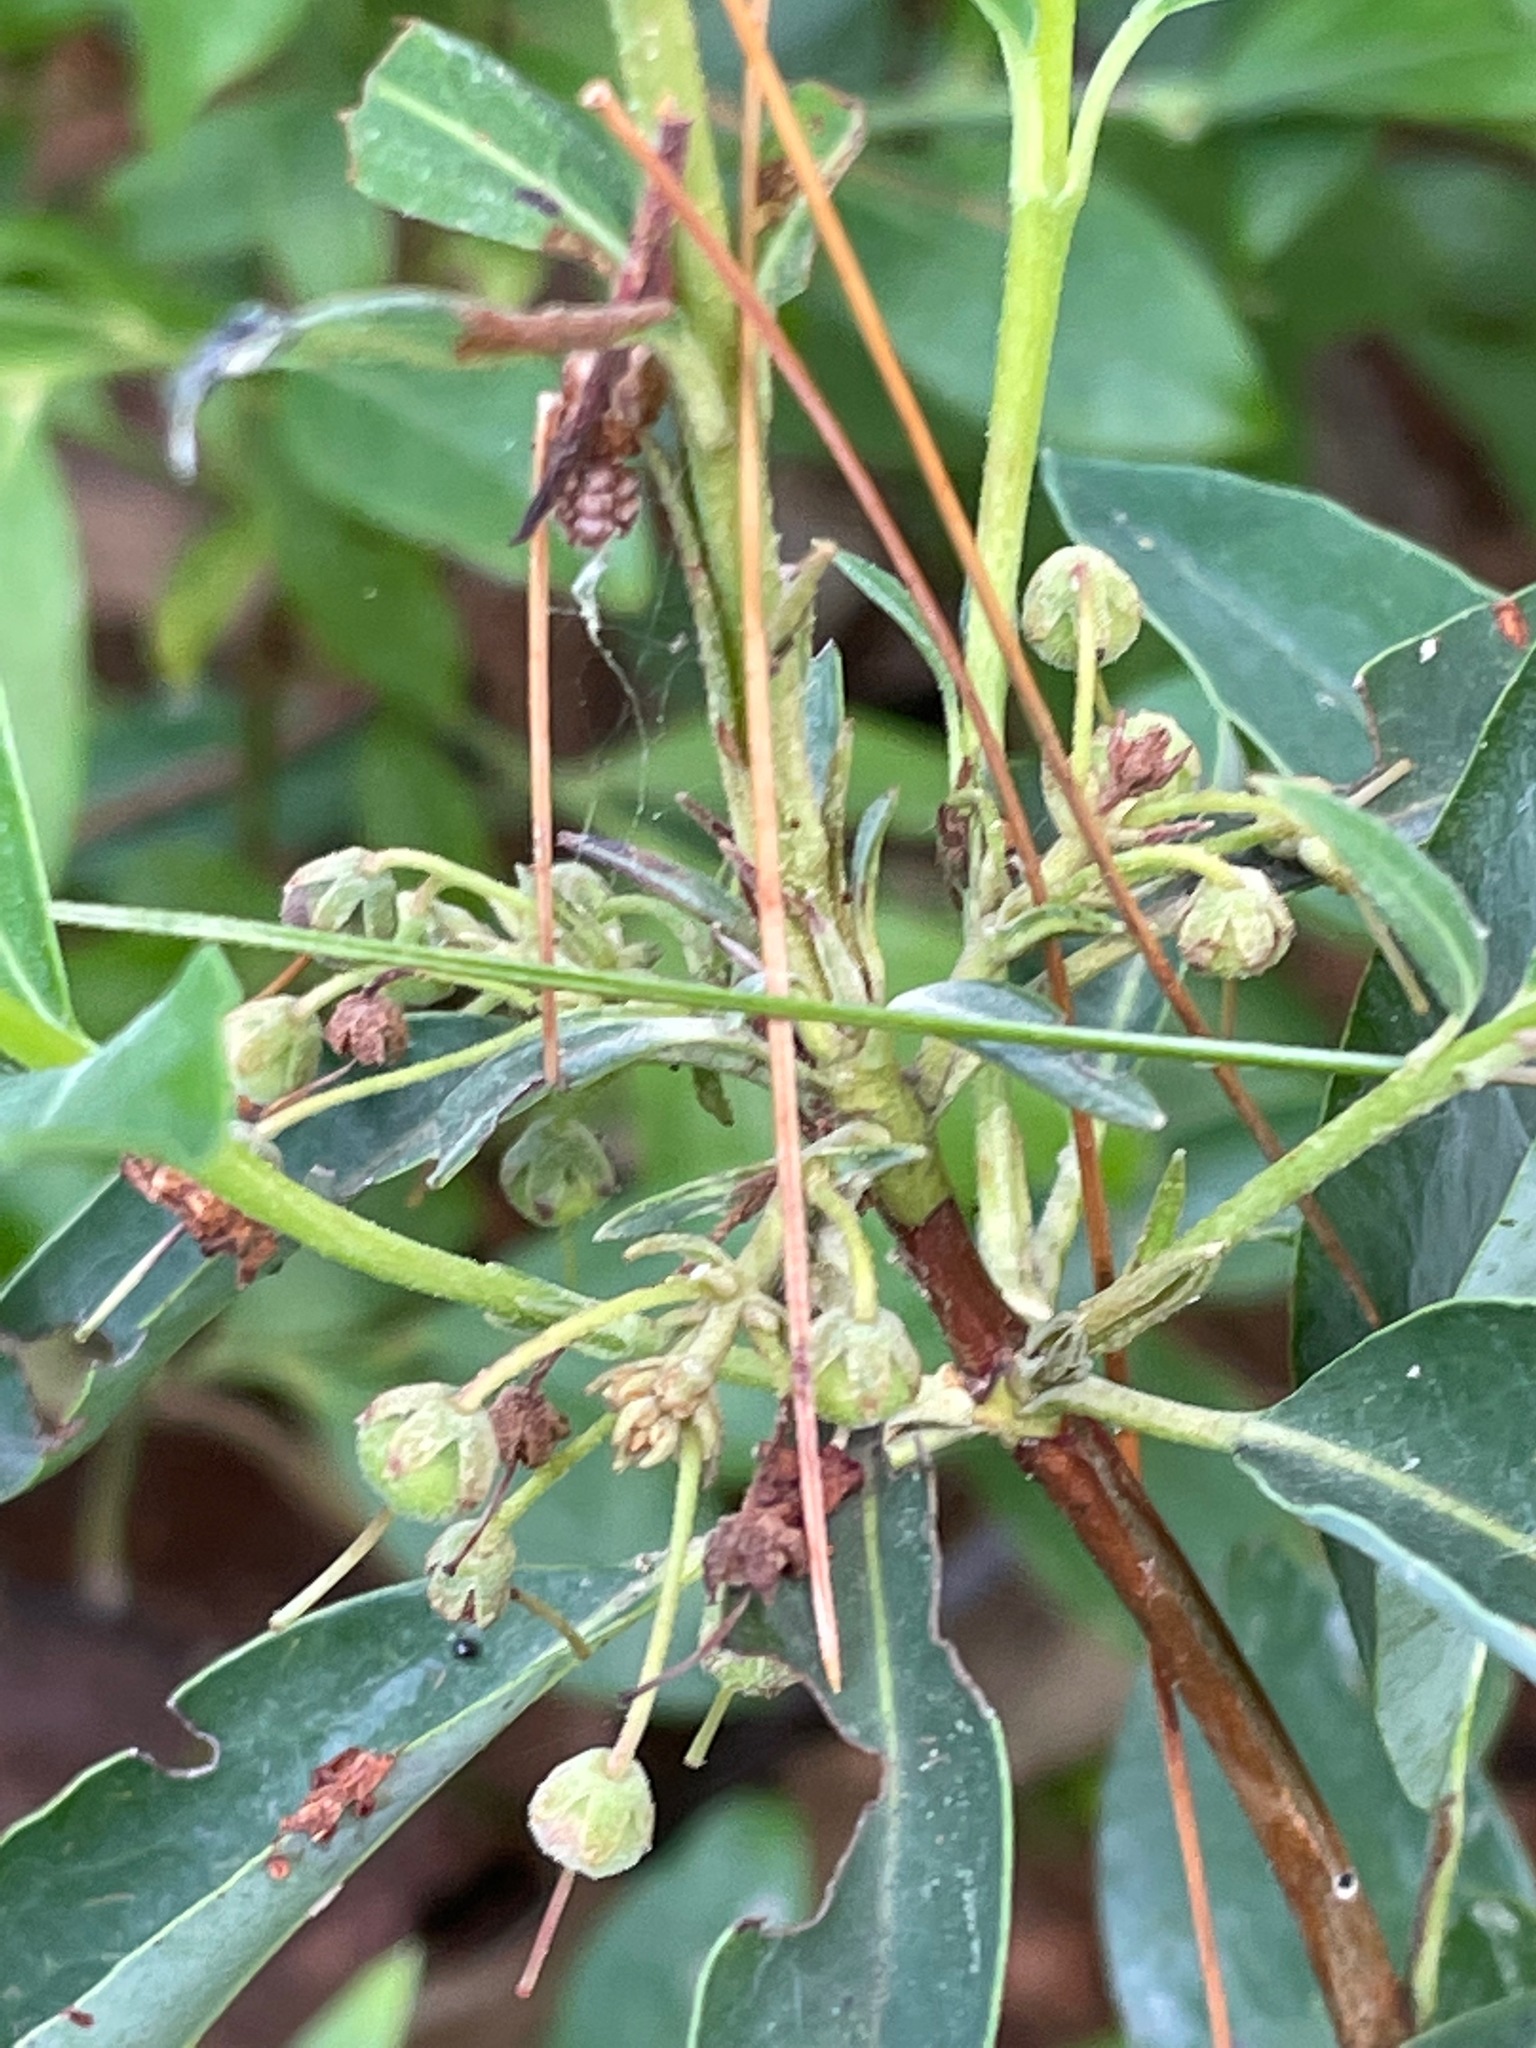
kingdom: Plantae
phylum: Tracheophyta
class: Magnoliopsida
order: Ericales
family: Ericaceae
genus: Kalmia
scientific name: Kalmia angustifolia
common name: Sheep-laurel
